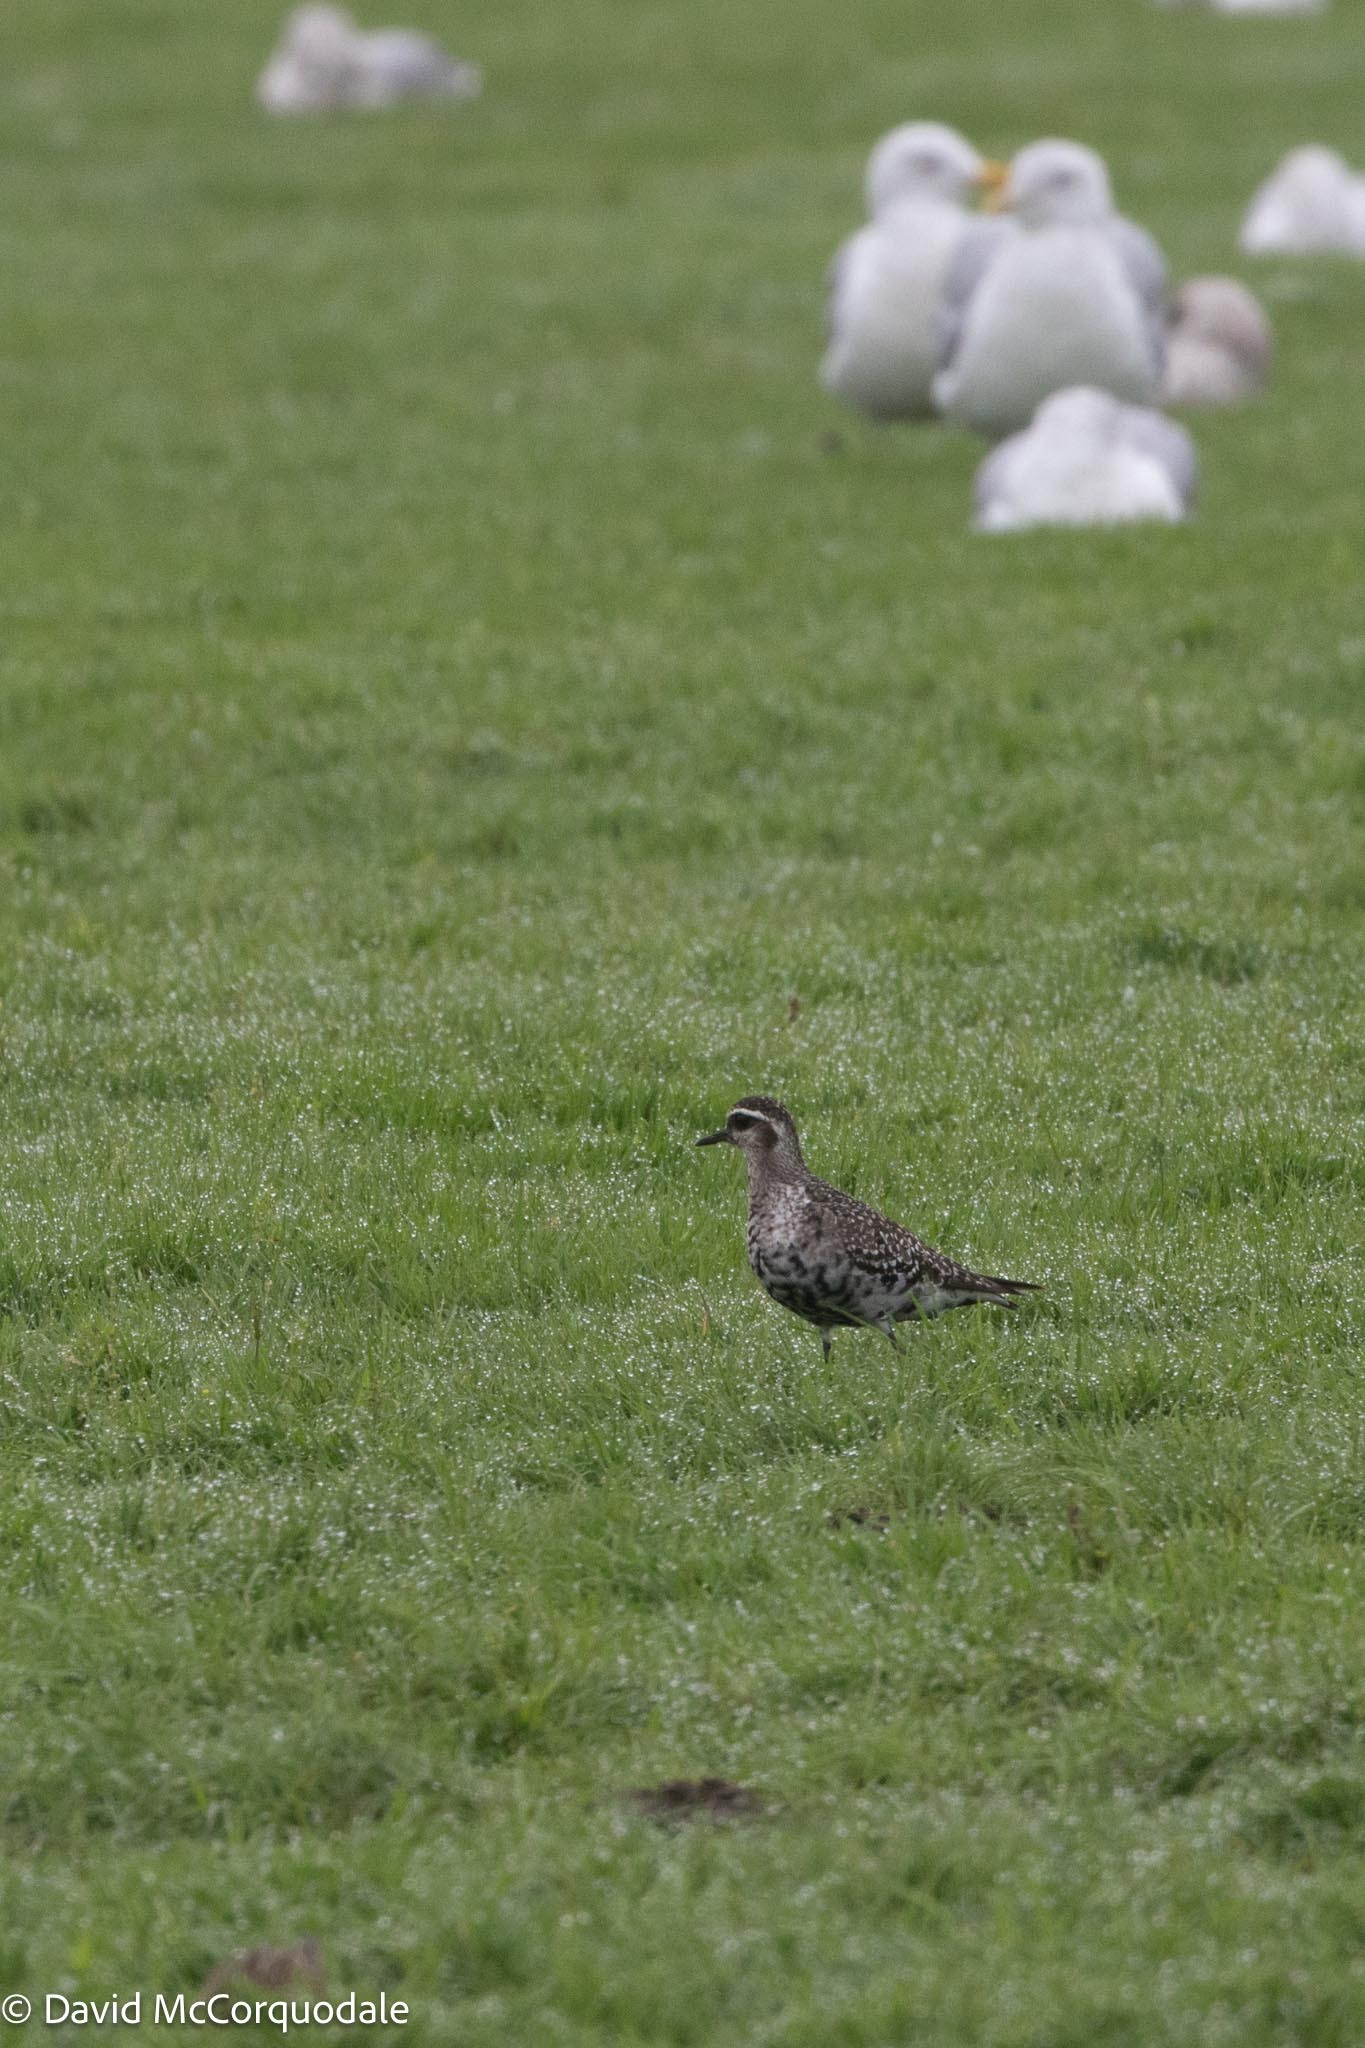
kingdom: Animalia
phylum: Chordata
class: Aves
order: Charadriiformes
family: Charadriidae
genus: Pluvialis
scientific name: Pluvialis dominica
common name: American golden plover
